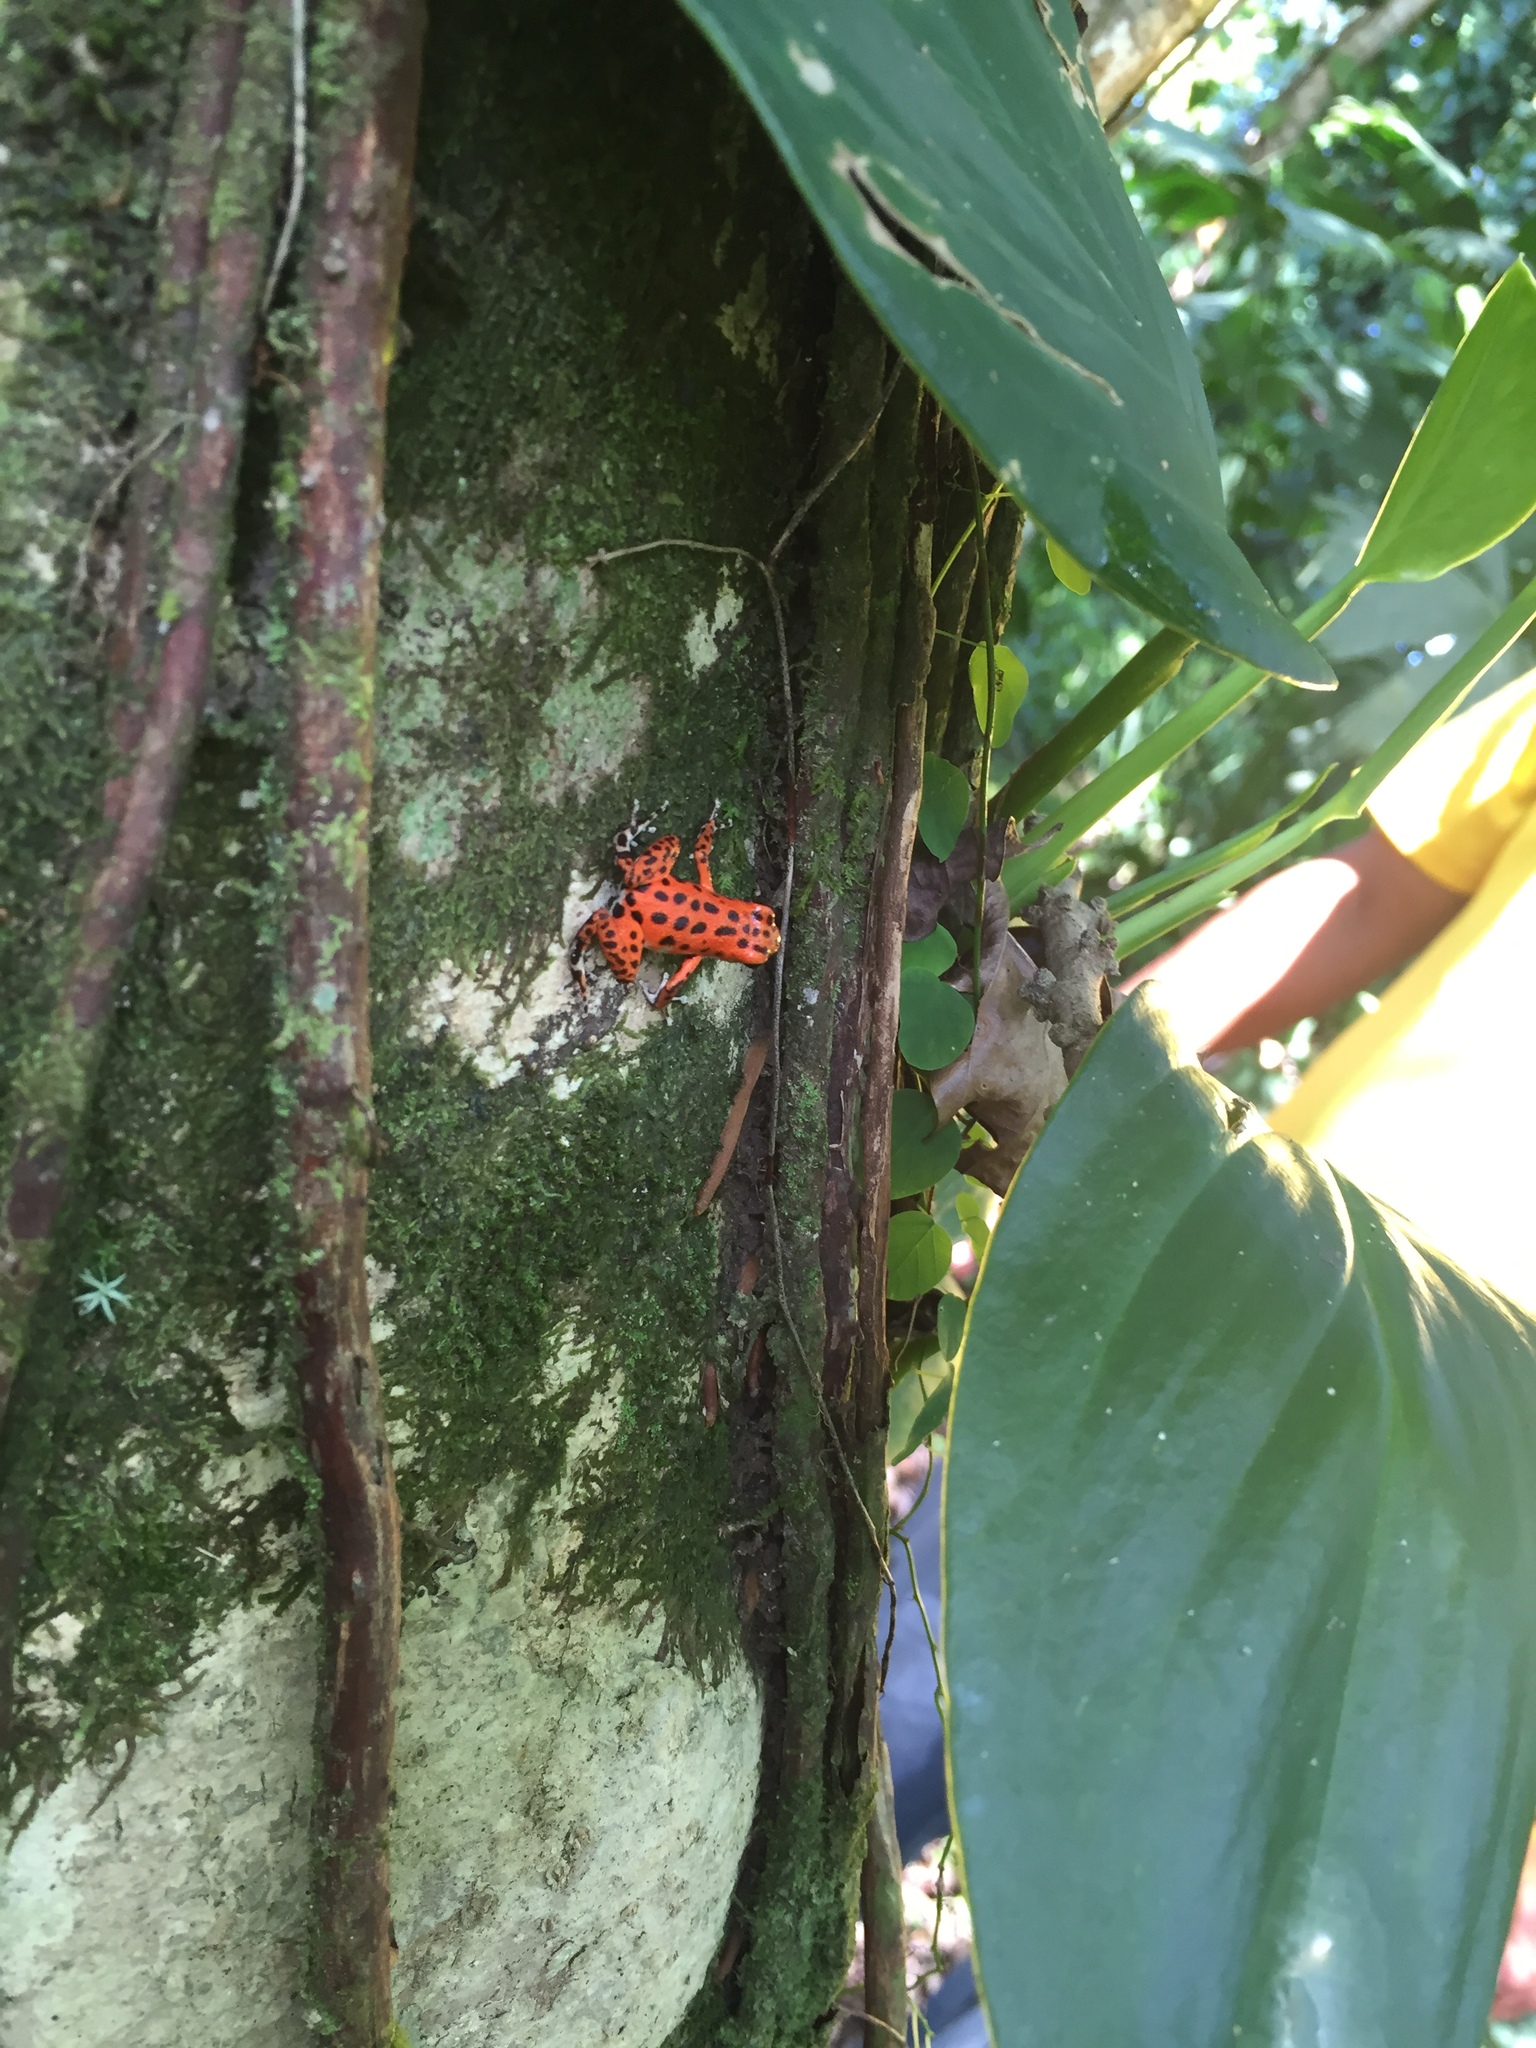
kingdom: Animalia
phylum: Chordata
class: Amphibia
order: Anura
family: Dendrobatidae
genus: Oophaga
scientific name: Oophaga pumilio
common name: Flaming poison frog
